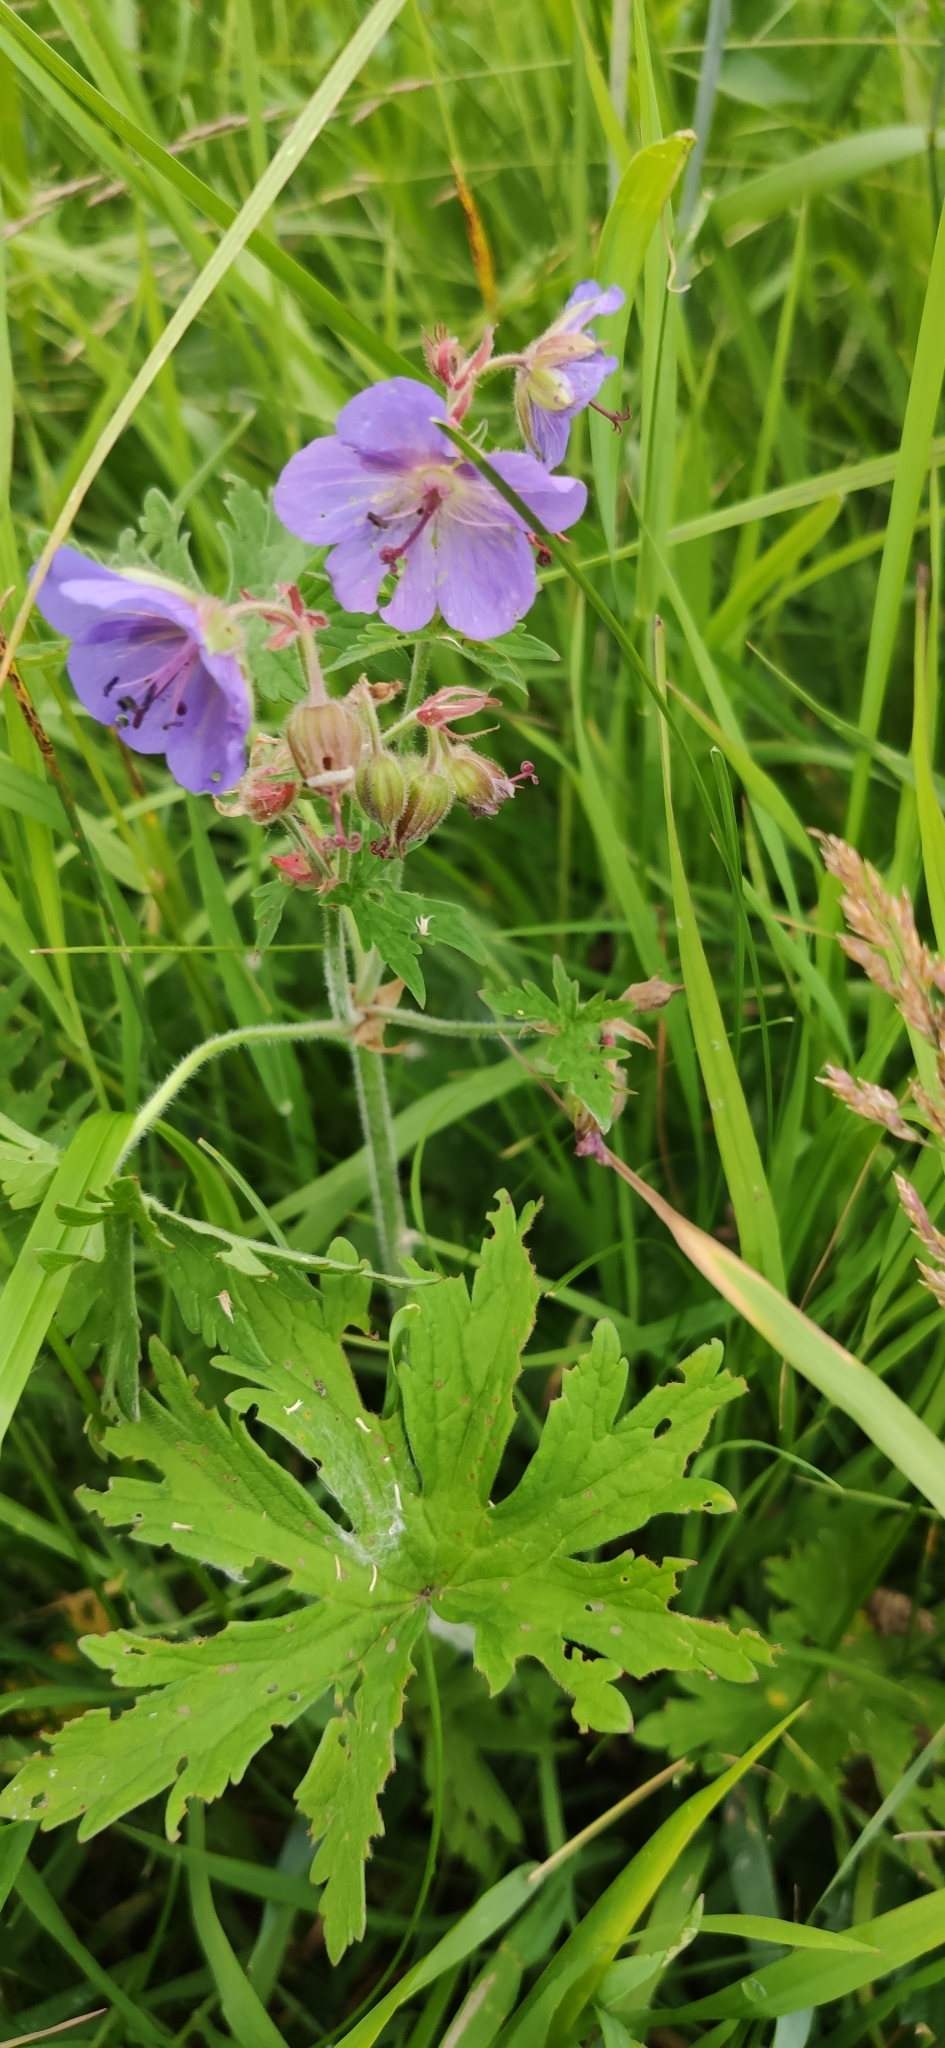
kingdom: Plantae
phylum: Tracheophyta
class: Magnoliopsida
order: Geraniales
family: Geraniaceae
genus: Geranium
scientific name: Geranium pratense
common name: Meadow crane's-bill
